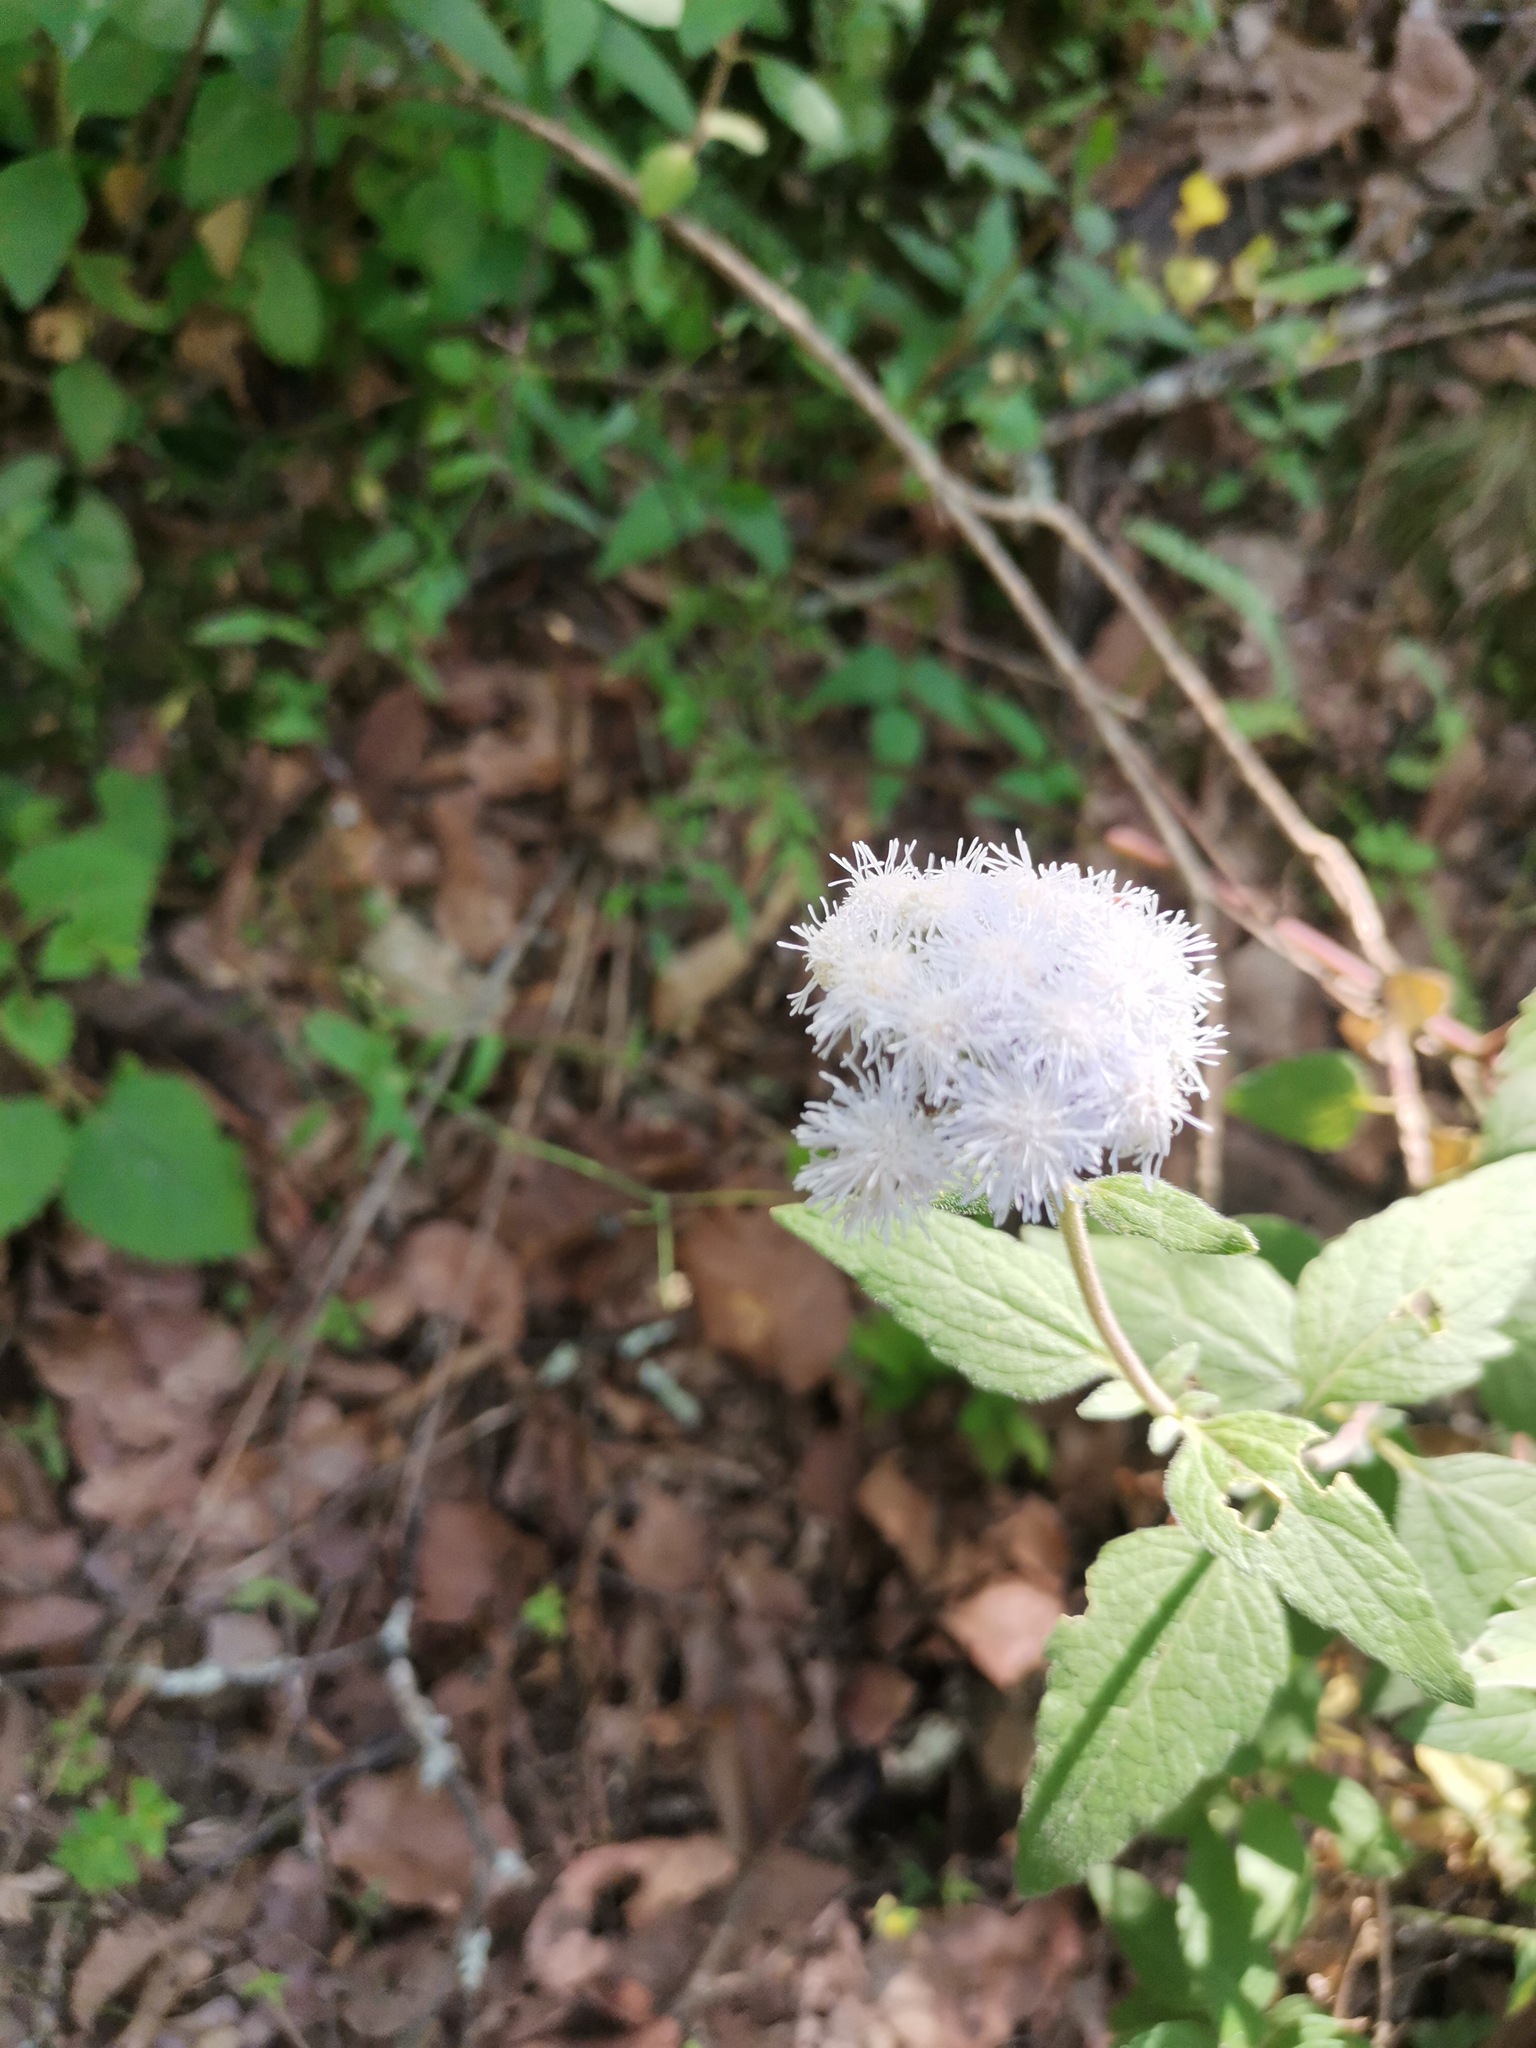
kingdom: Plantae
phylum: Tracheophyta
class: Magnoliopsida
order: Asterales
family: Asteraceae
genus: Ageratum
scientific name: Ageratum corymbosum
